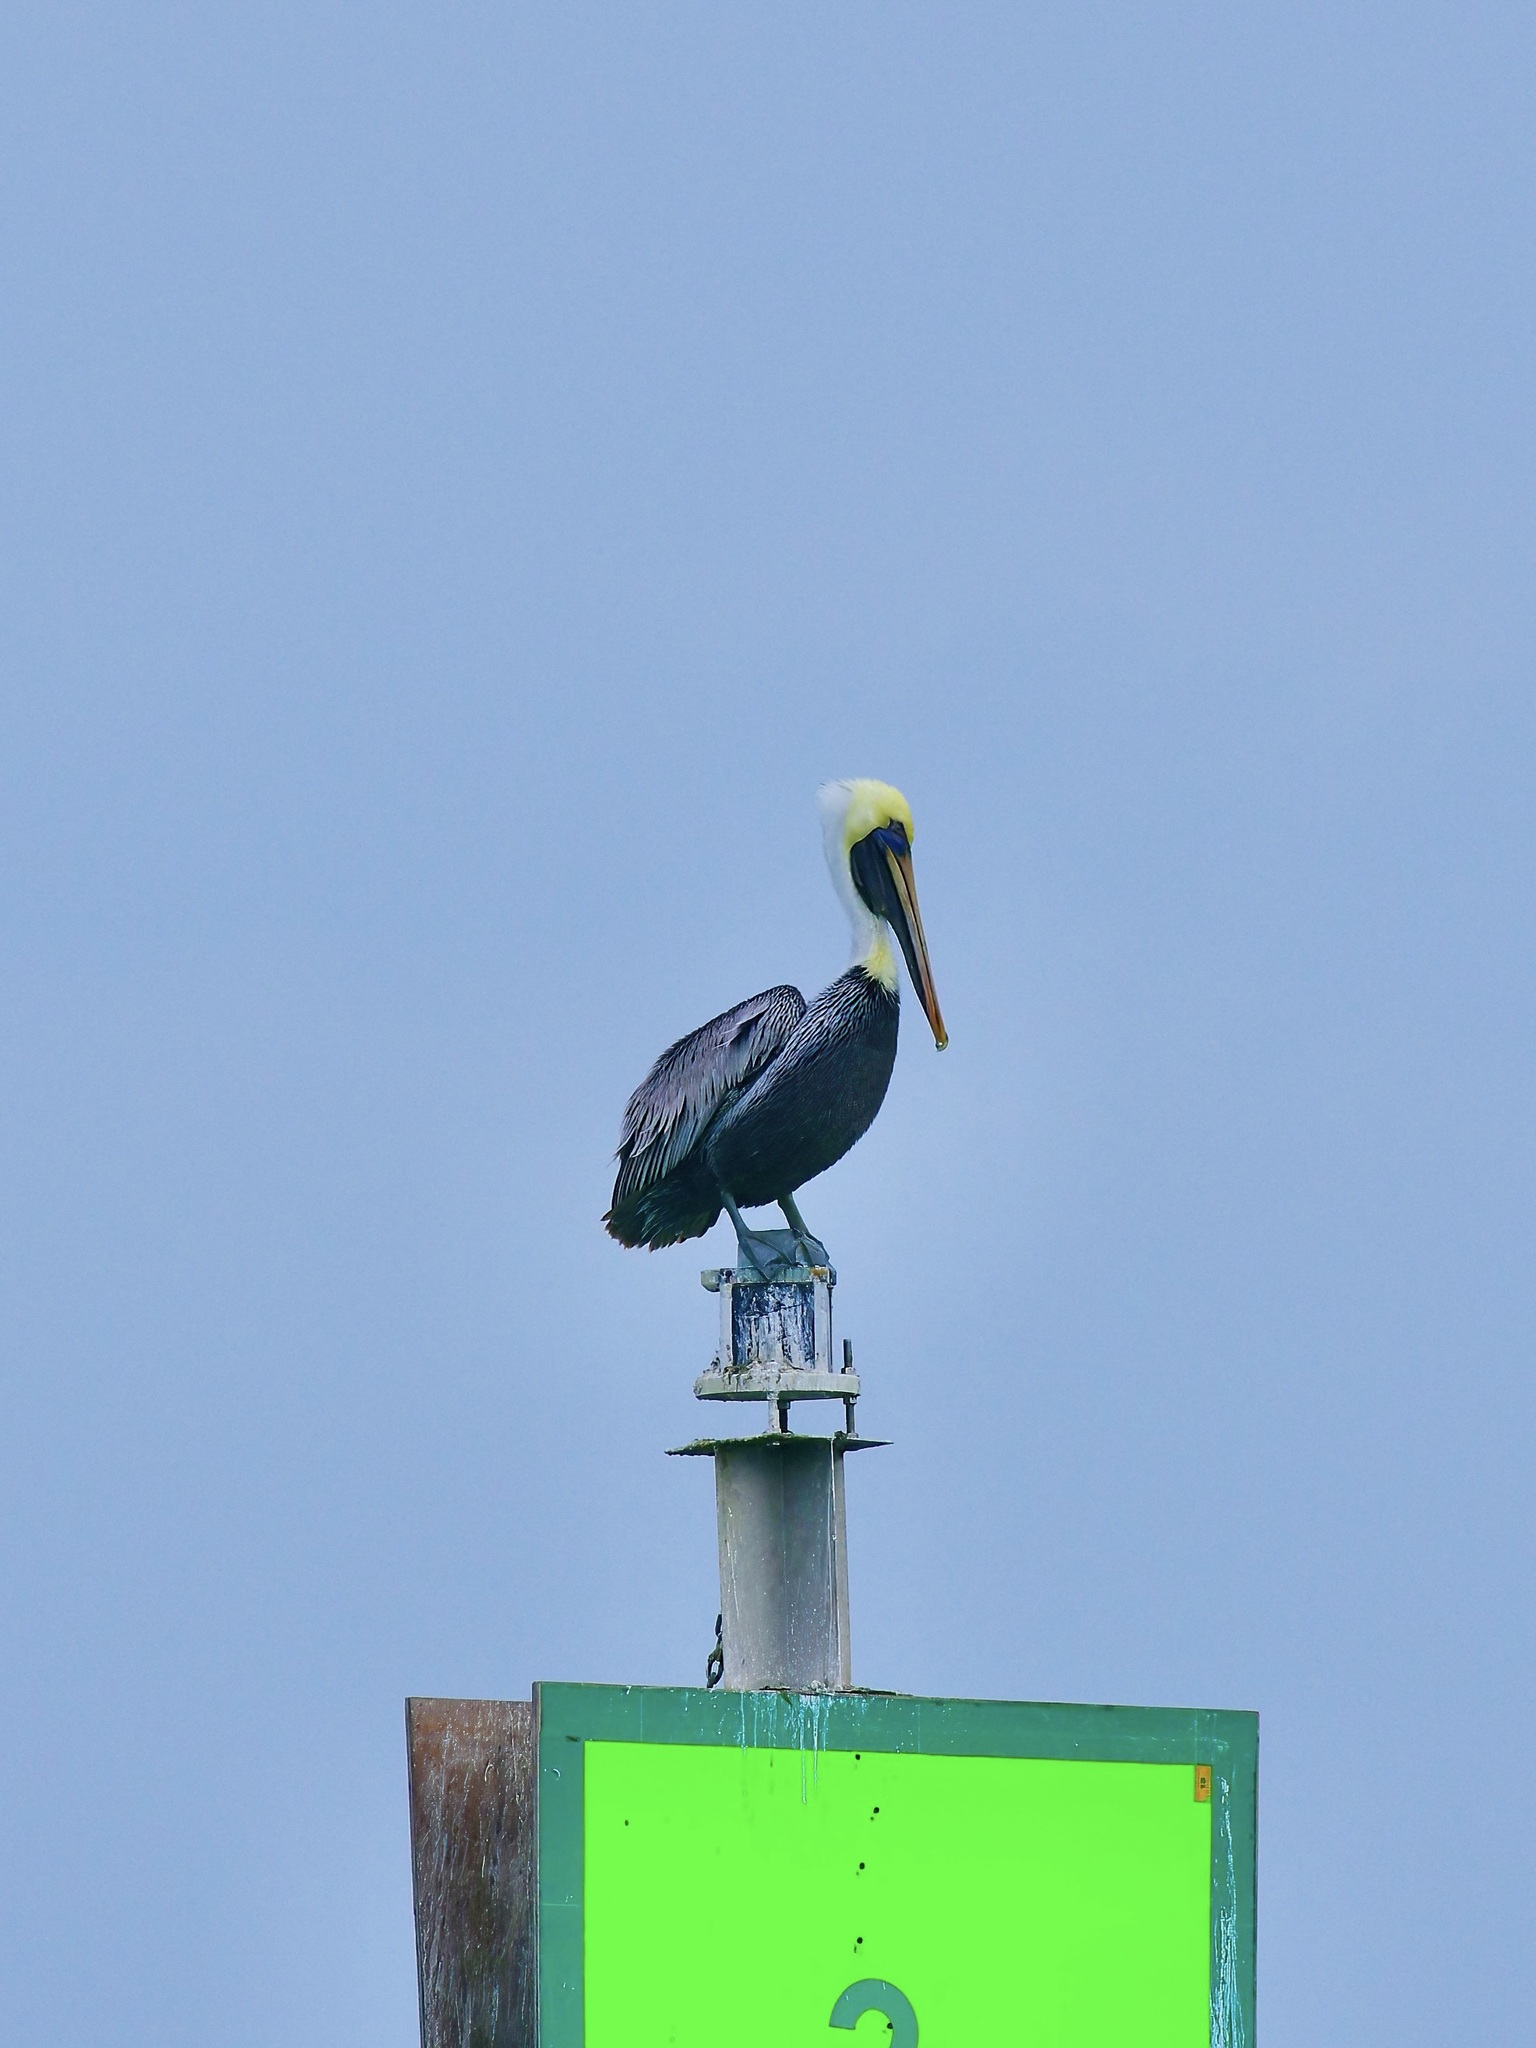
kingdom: Animalia
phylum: Chordata
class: Aves
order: Pelecaniformes
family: Pelecanidae
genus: Pelecanus
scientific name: Pelecanus occidentalis
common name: Brown pelican
